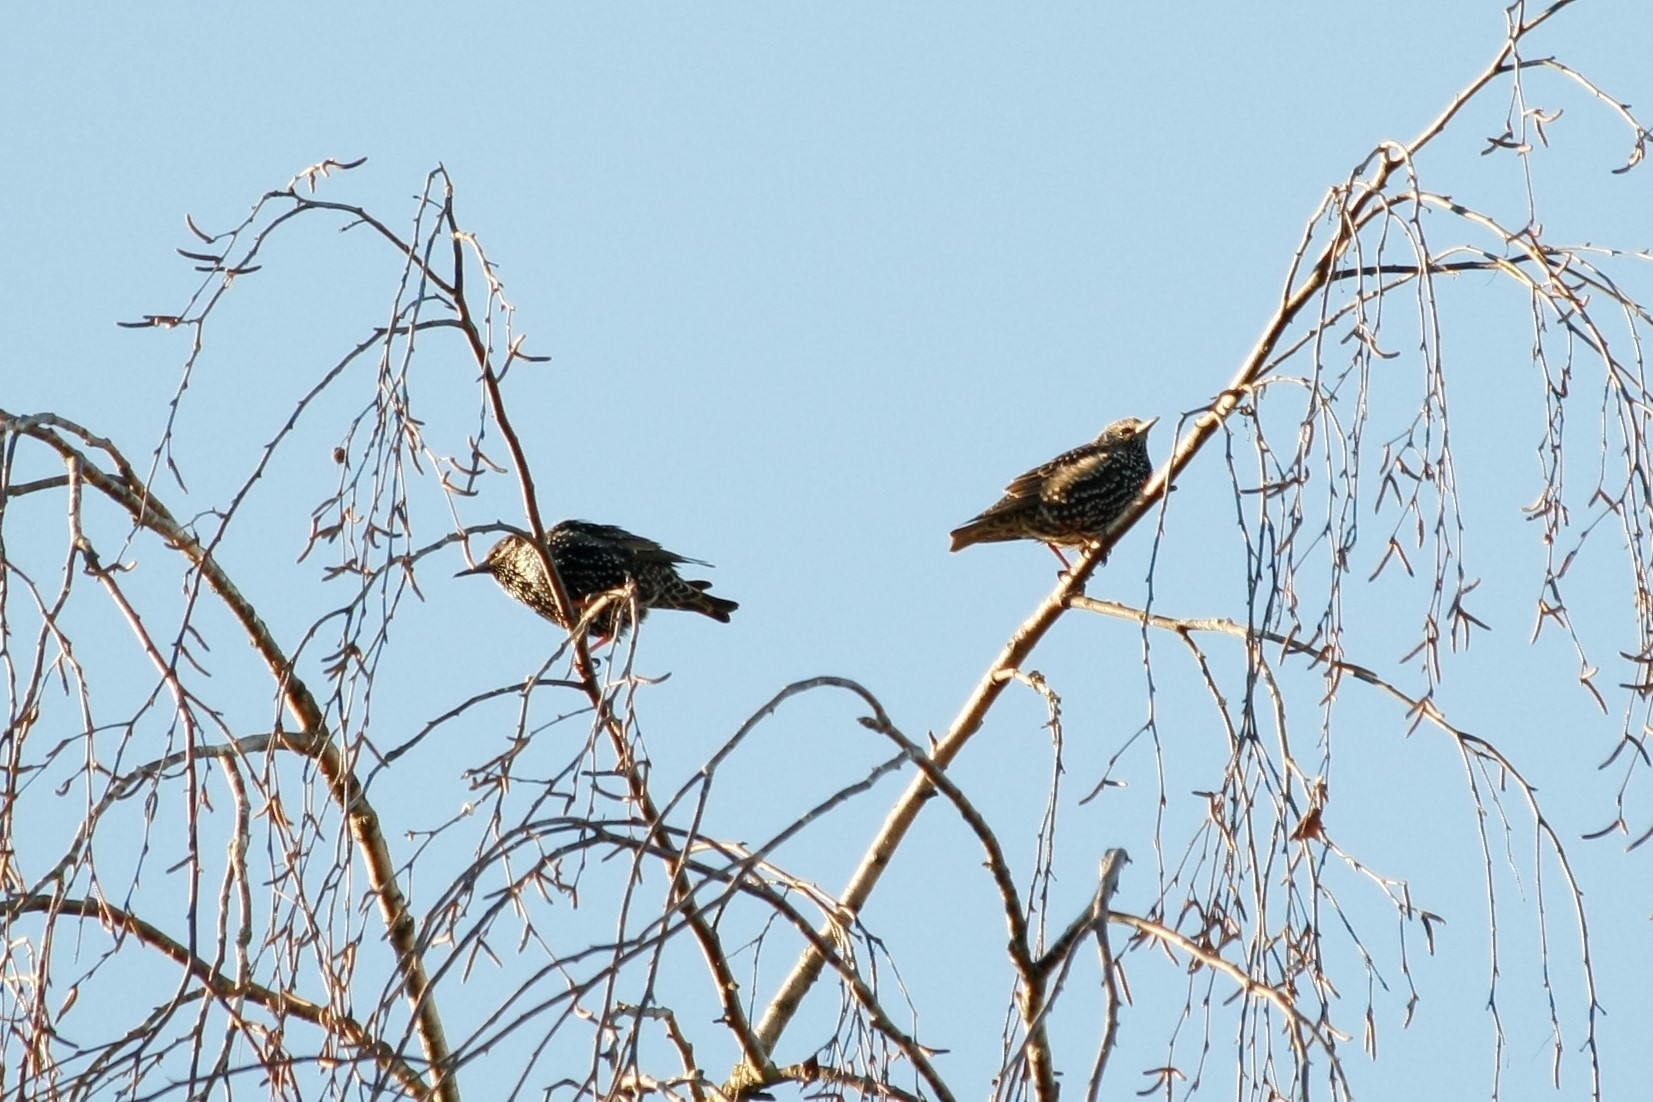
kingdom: Animalia
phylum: Chordata
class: Aves
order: Passeriformes
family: Sturnidae
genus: Sturnus
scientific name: Sturnus vulgaris
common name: Common starling
